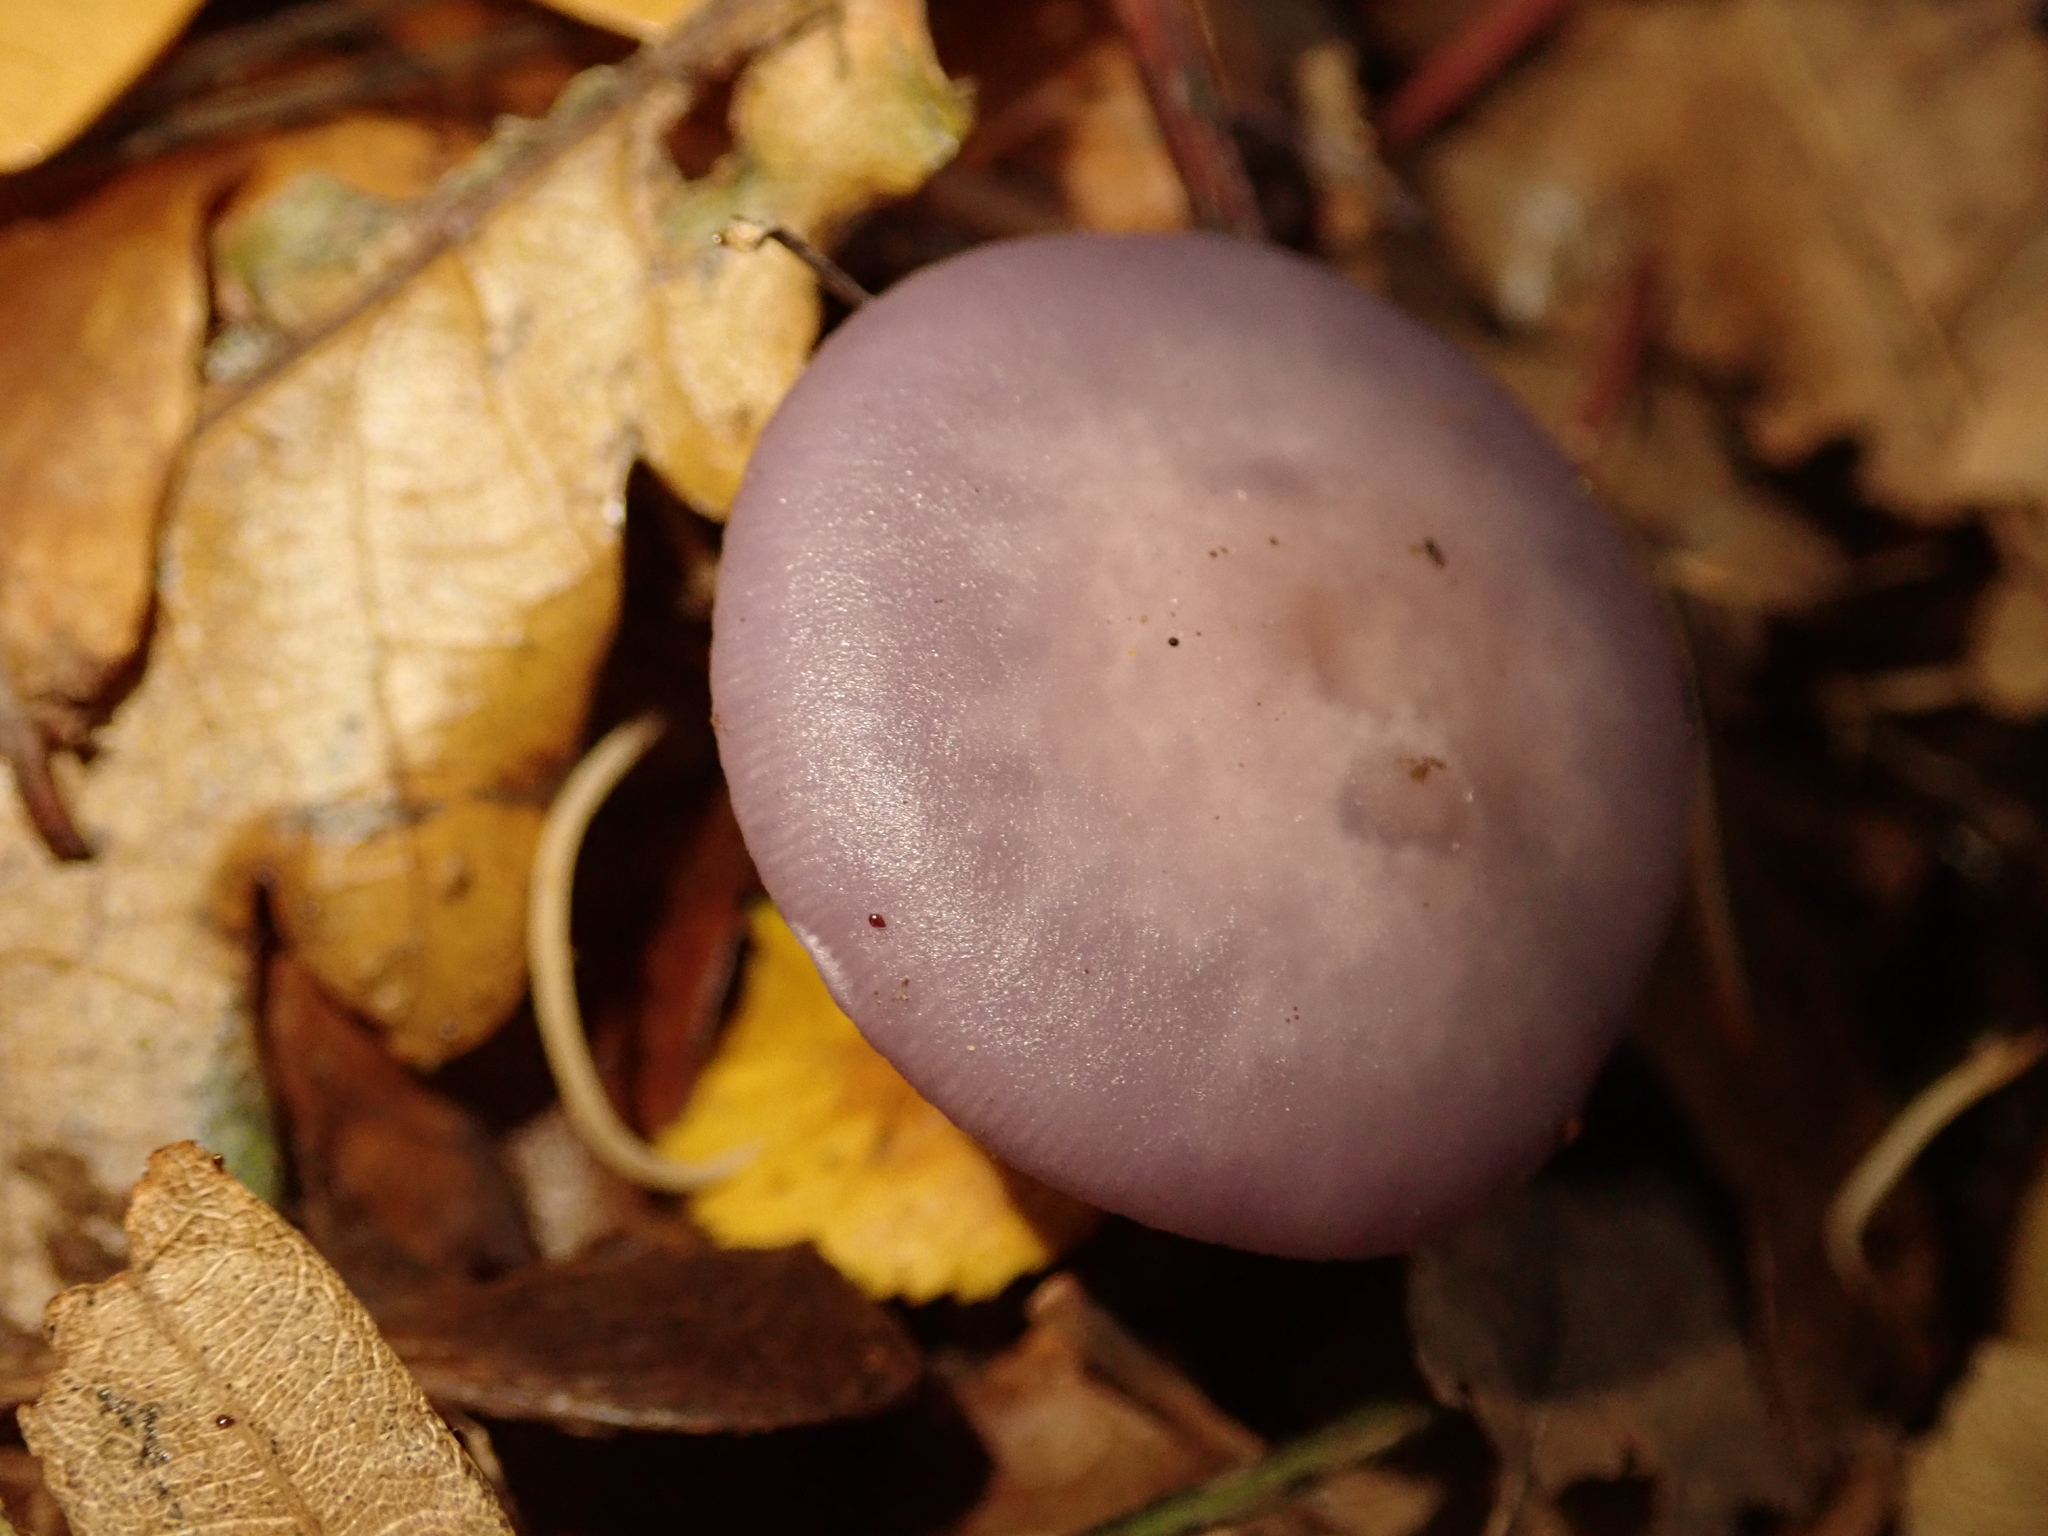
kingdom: Fungi
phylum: Basidiomycota
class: Agaricomycetes
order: Agaricales
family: Tricholomataceae
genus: Collybia
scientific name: Collybia
